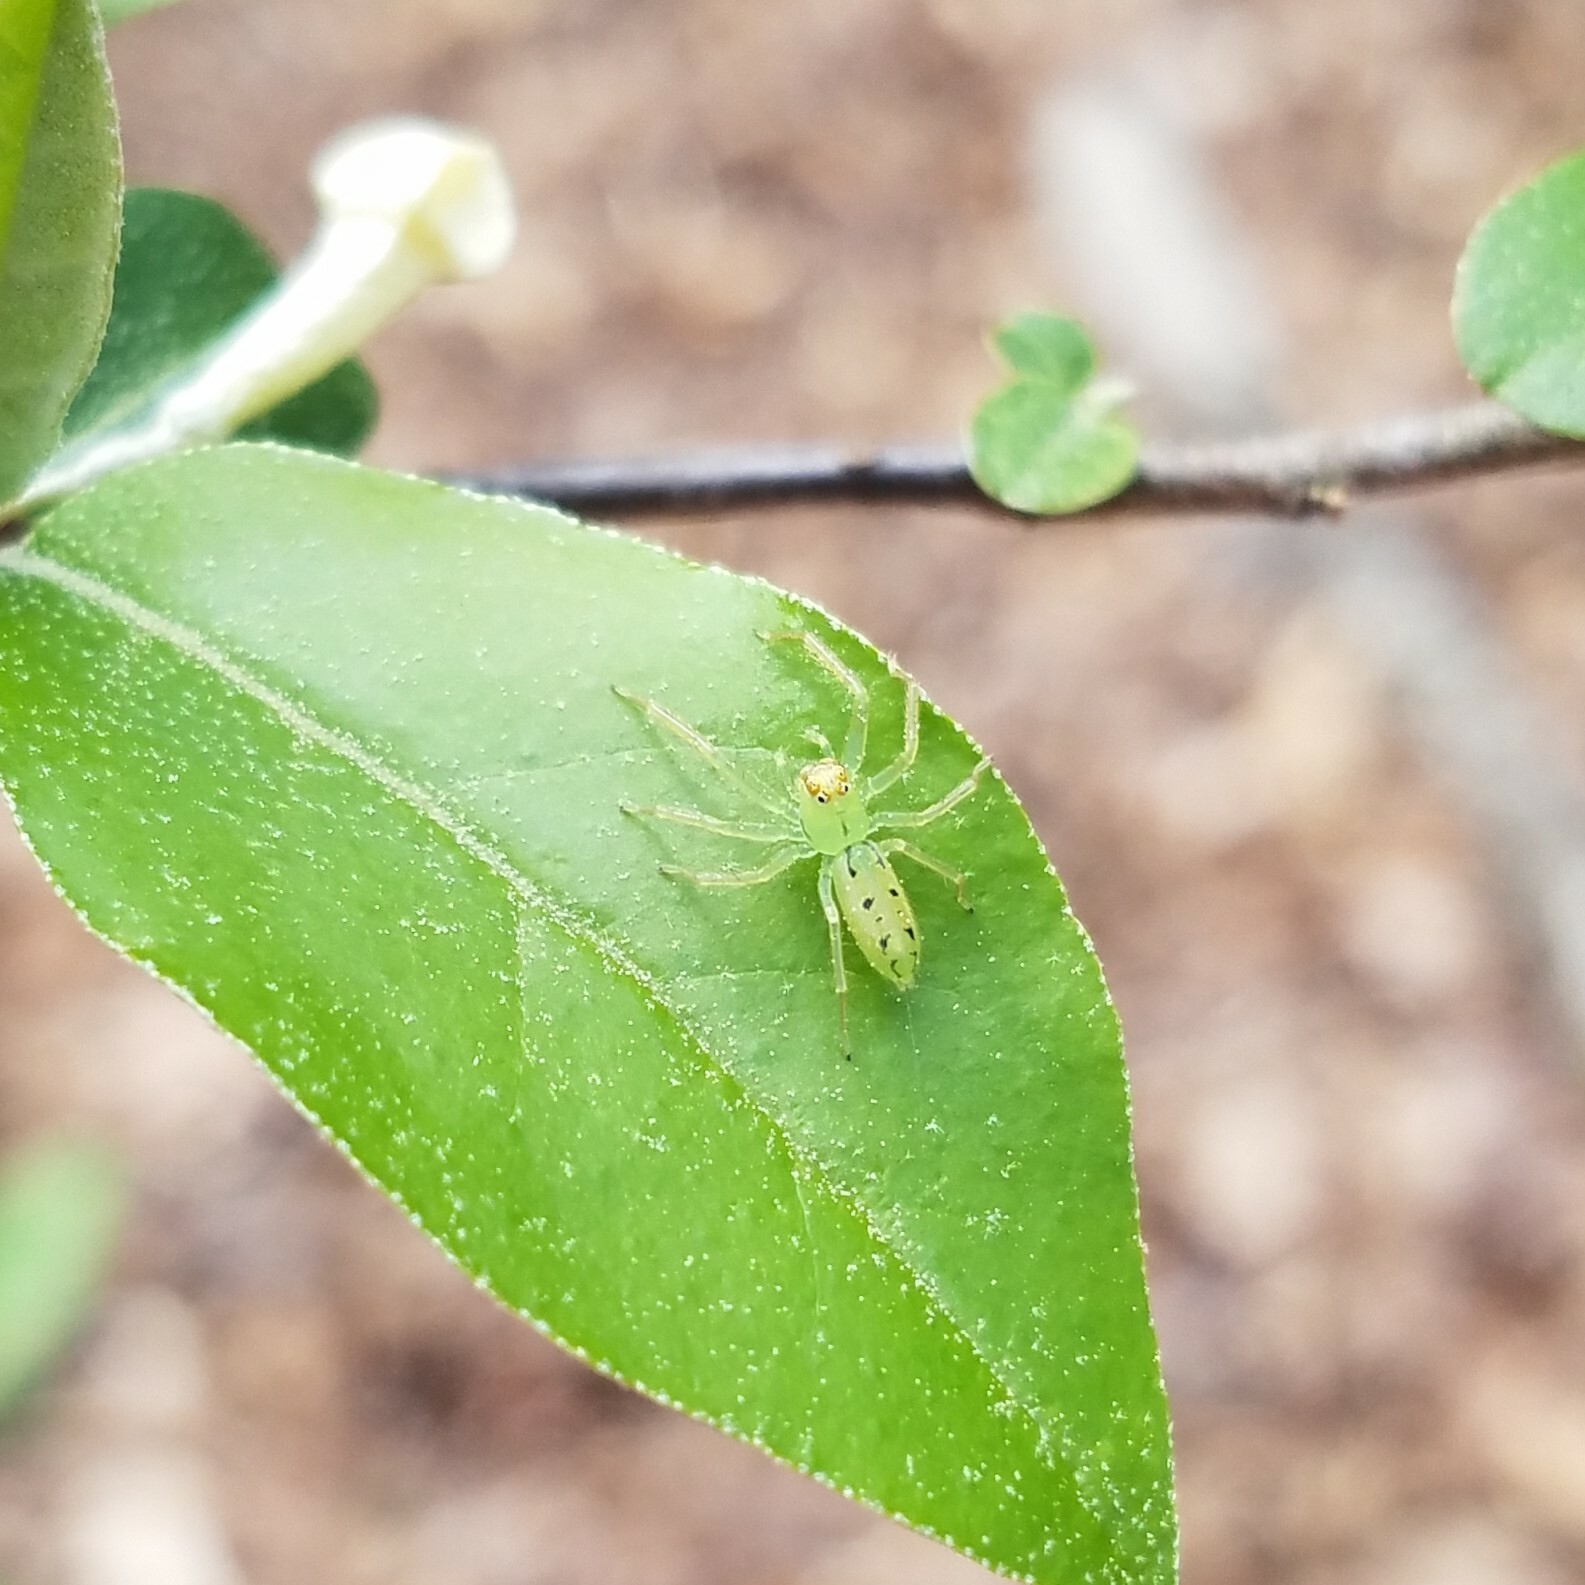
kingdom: Animalia
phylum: Arthropoda
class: Arachnida
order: Araneae
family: Salticidae
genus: Lyssomanes
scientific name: Lyssomanes viridis
